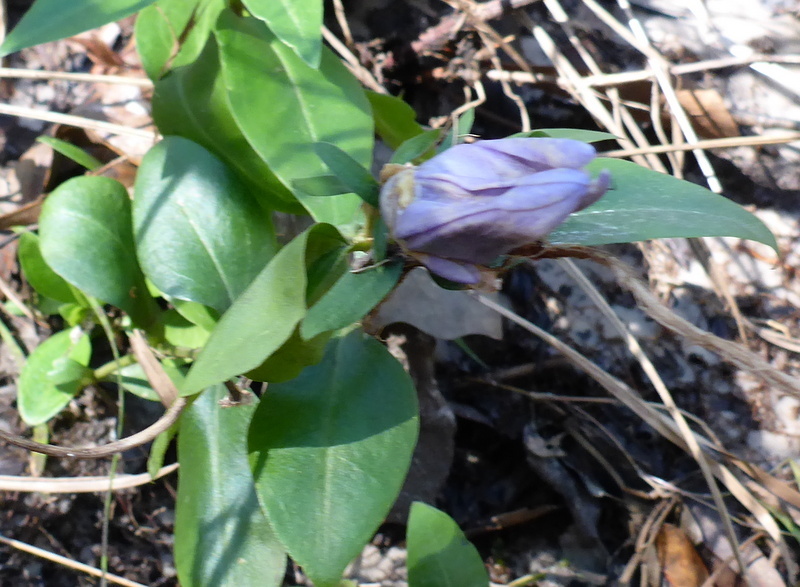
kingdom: Plantae
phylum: Tracheophyta
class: Magnoliopsida
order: Gentianales
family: Gentianaceae
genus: Gentiana
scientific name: Gentiana saponaria
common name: Soapwort gentian
